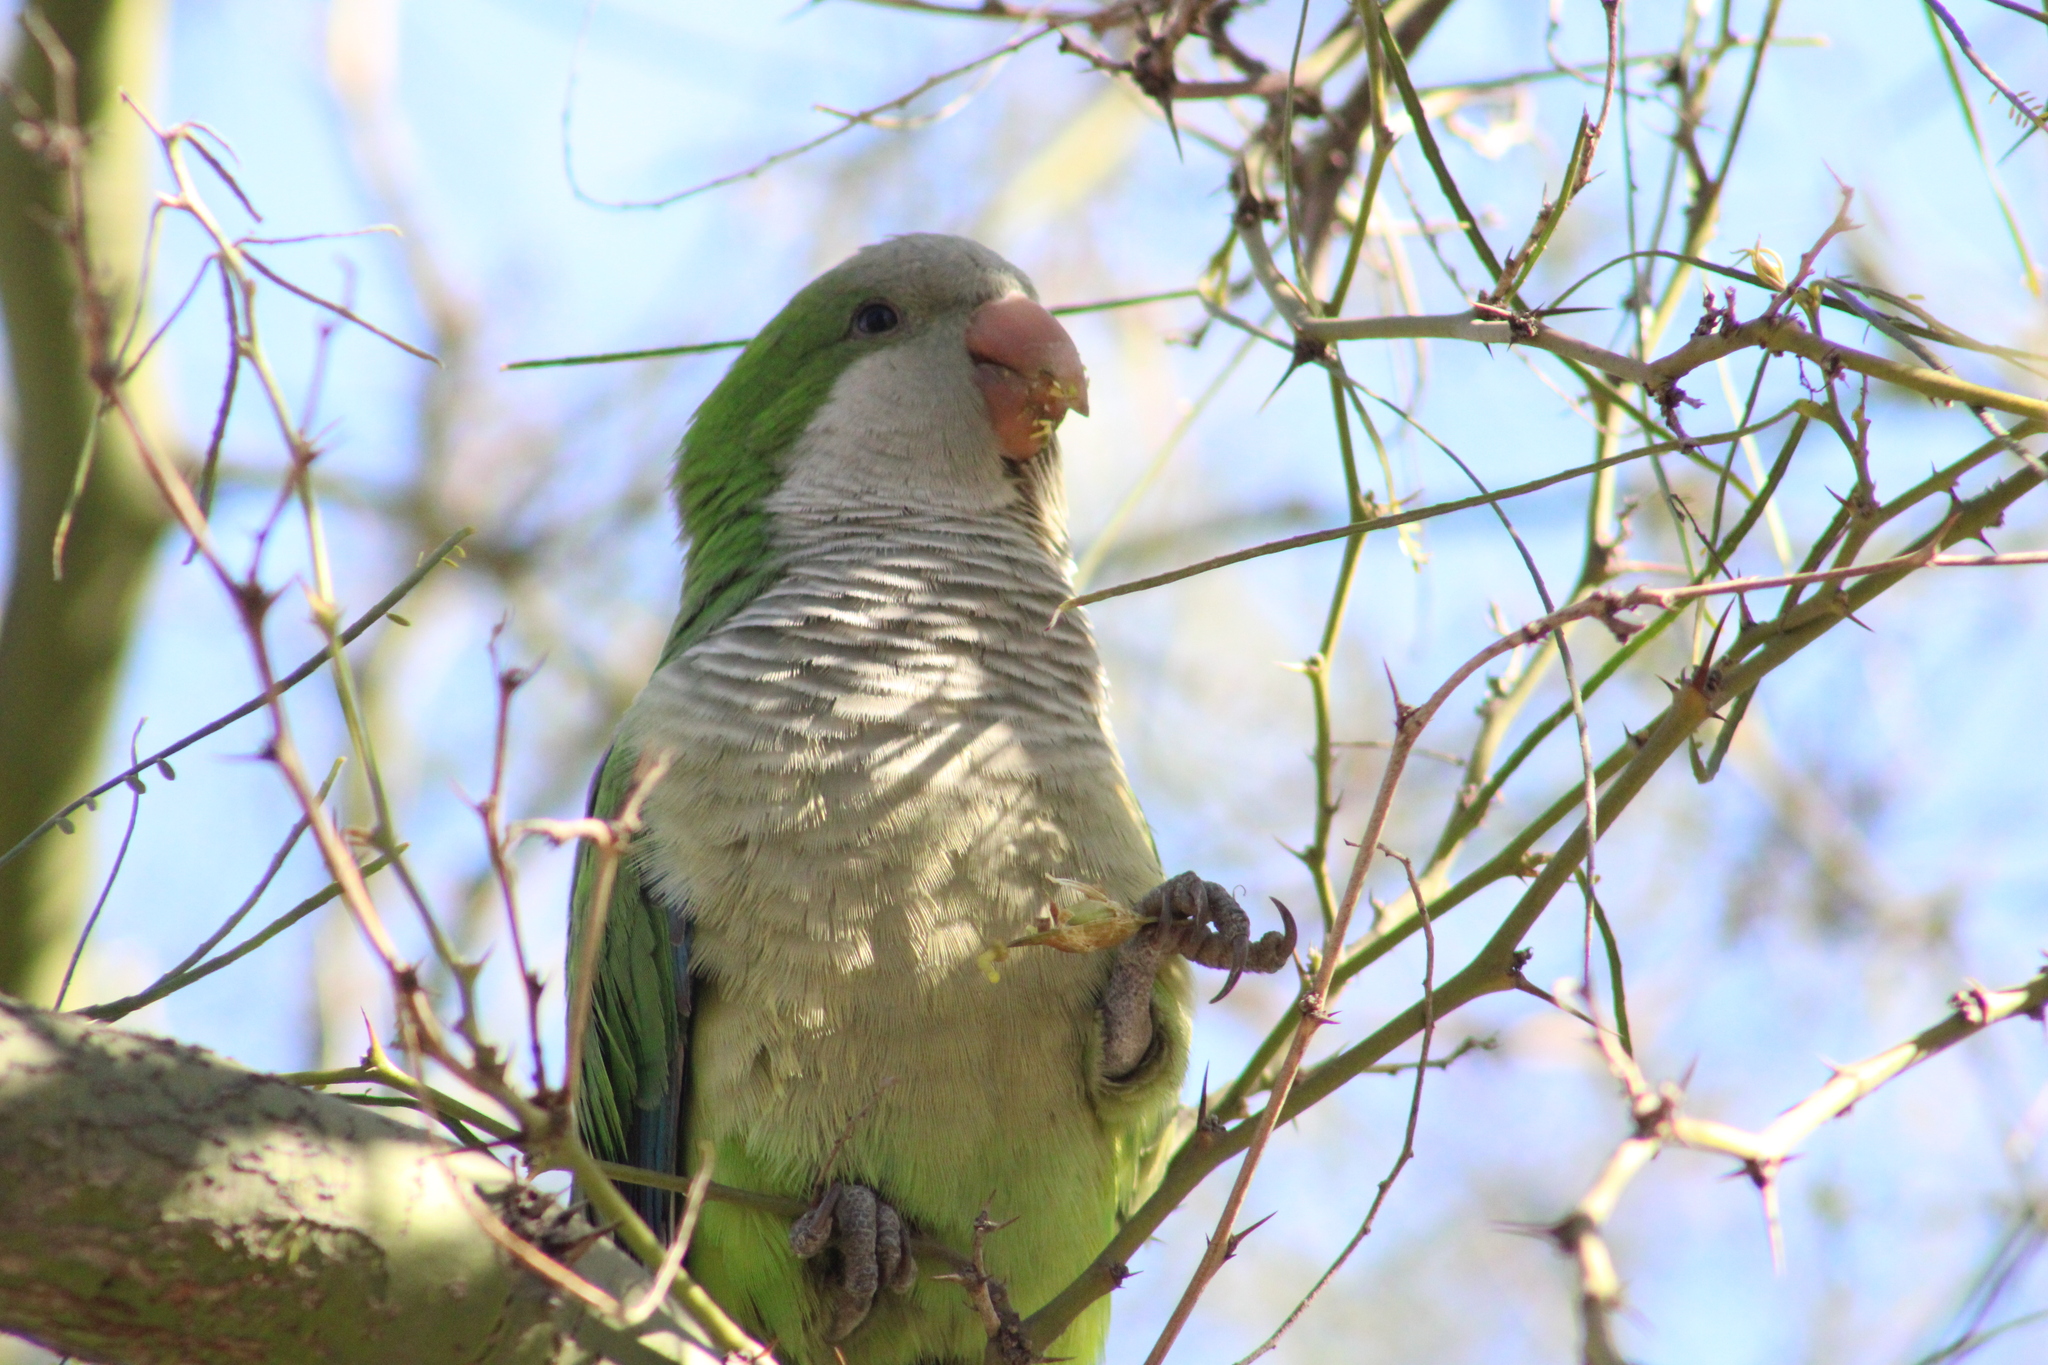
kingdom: Animalia
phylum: Chordata
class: Aves
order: Psittaciformes
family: Psittacidae
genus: Myiopsitta
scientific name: Myiopsitta monachus
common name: Monk parakeet
